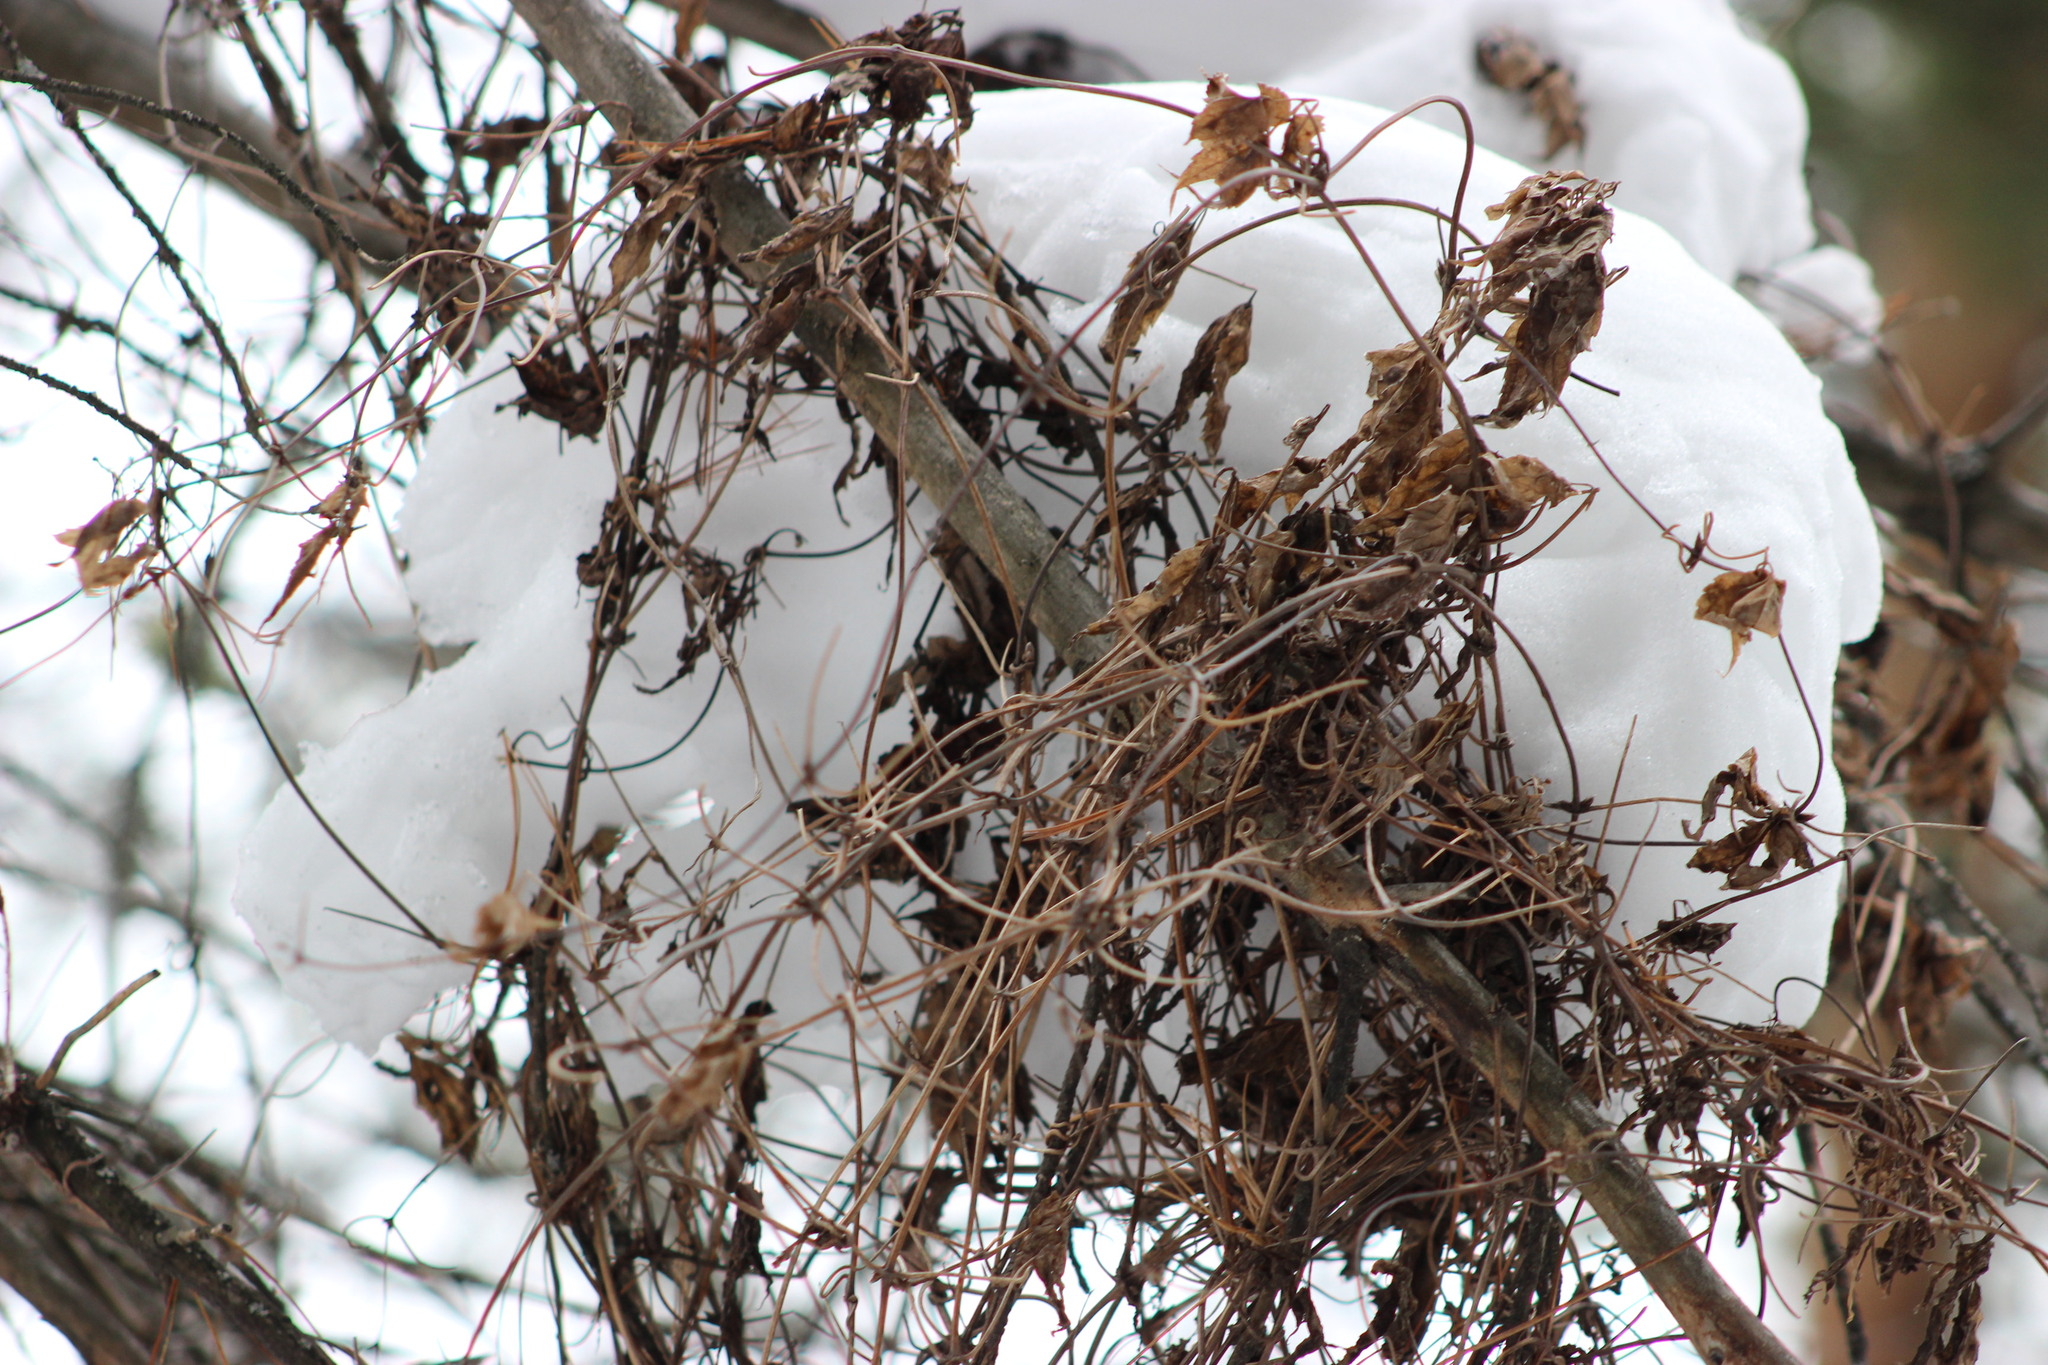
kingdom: Plantae
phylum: Tracheophyta
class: Magnoliopsida
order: Ranunculales
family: Ranunculaceae
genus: Clematis
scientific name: Clematis sibirica
